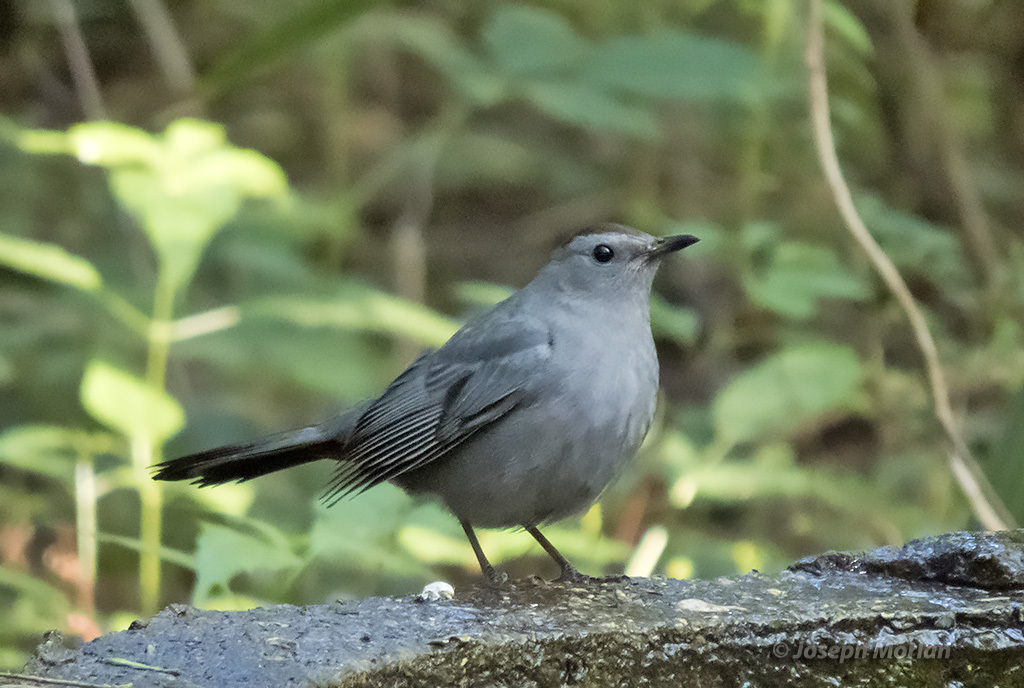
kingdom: Animalia
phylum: Chordata
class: Aves
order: Passeriformes
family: Mimidae
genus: Dumetella
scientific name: Dumetella carolinensis
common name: Gray catbird
